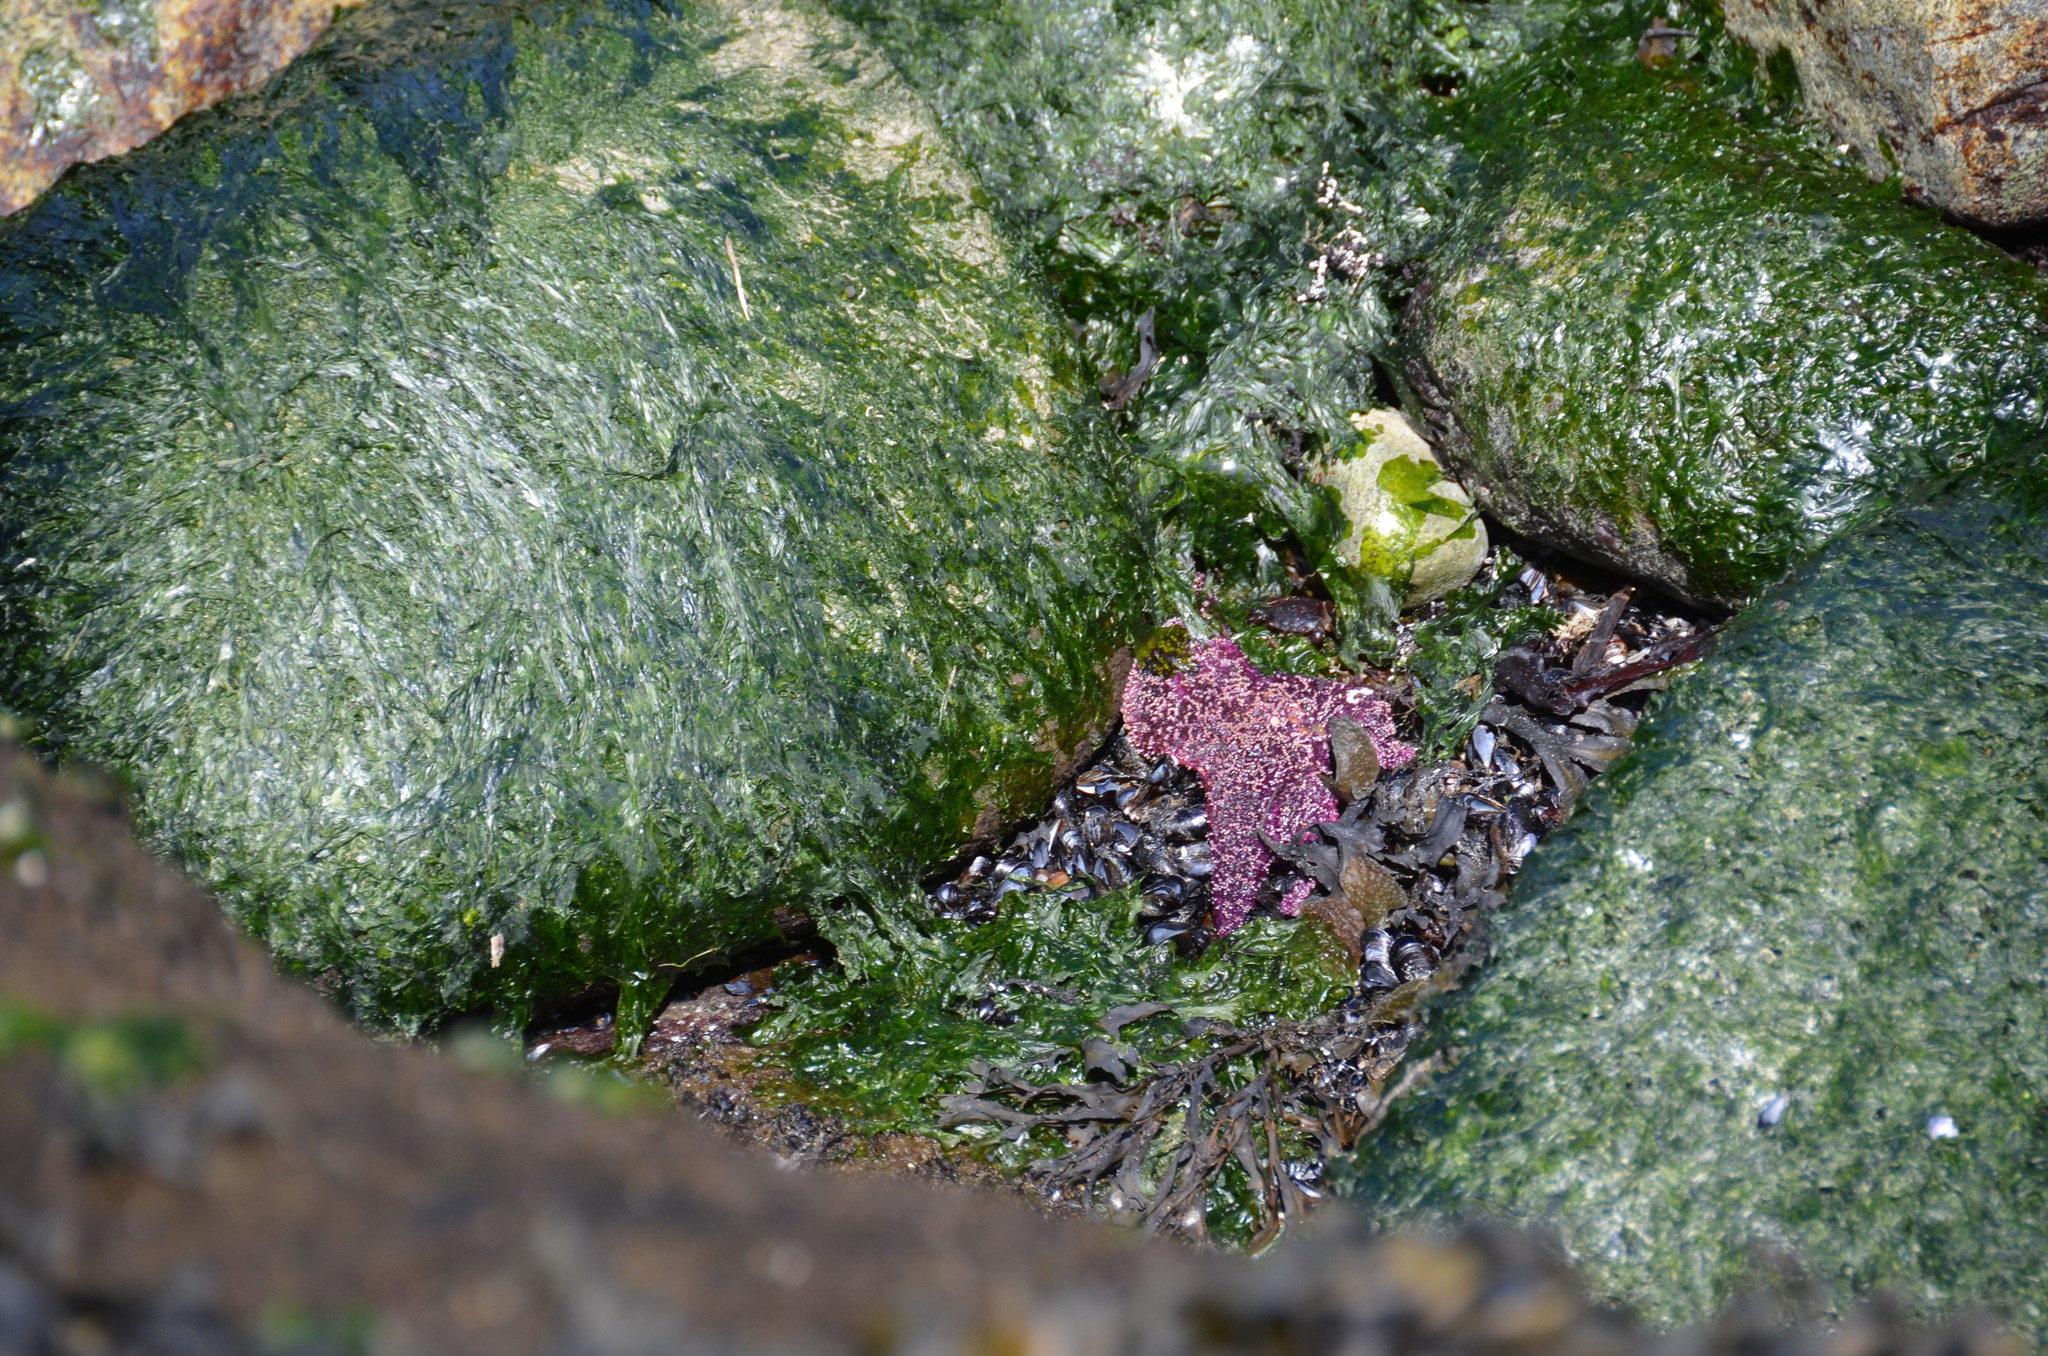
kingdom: Animalia
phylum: Echinodermata
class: Asteroidea
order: Forcipulatida
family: Asteriidae
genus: Pisaster
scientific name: Pisaster ochraceus
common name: Ochre stars
